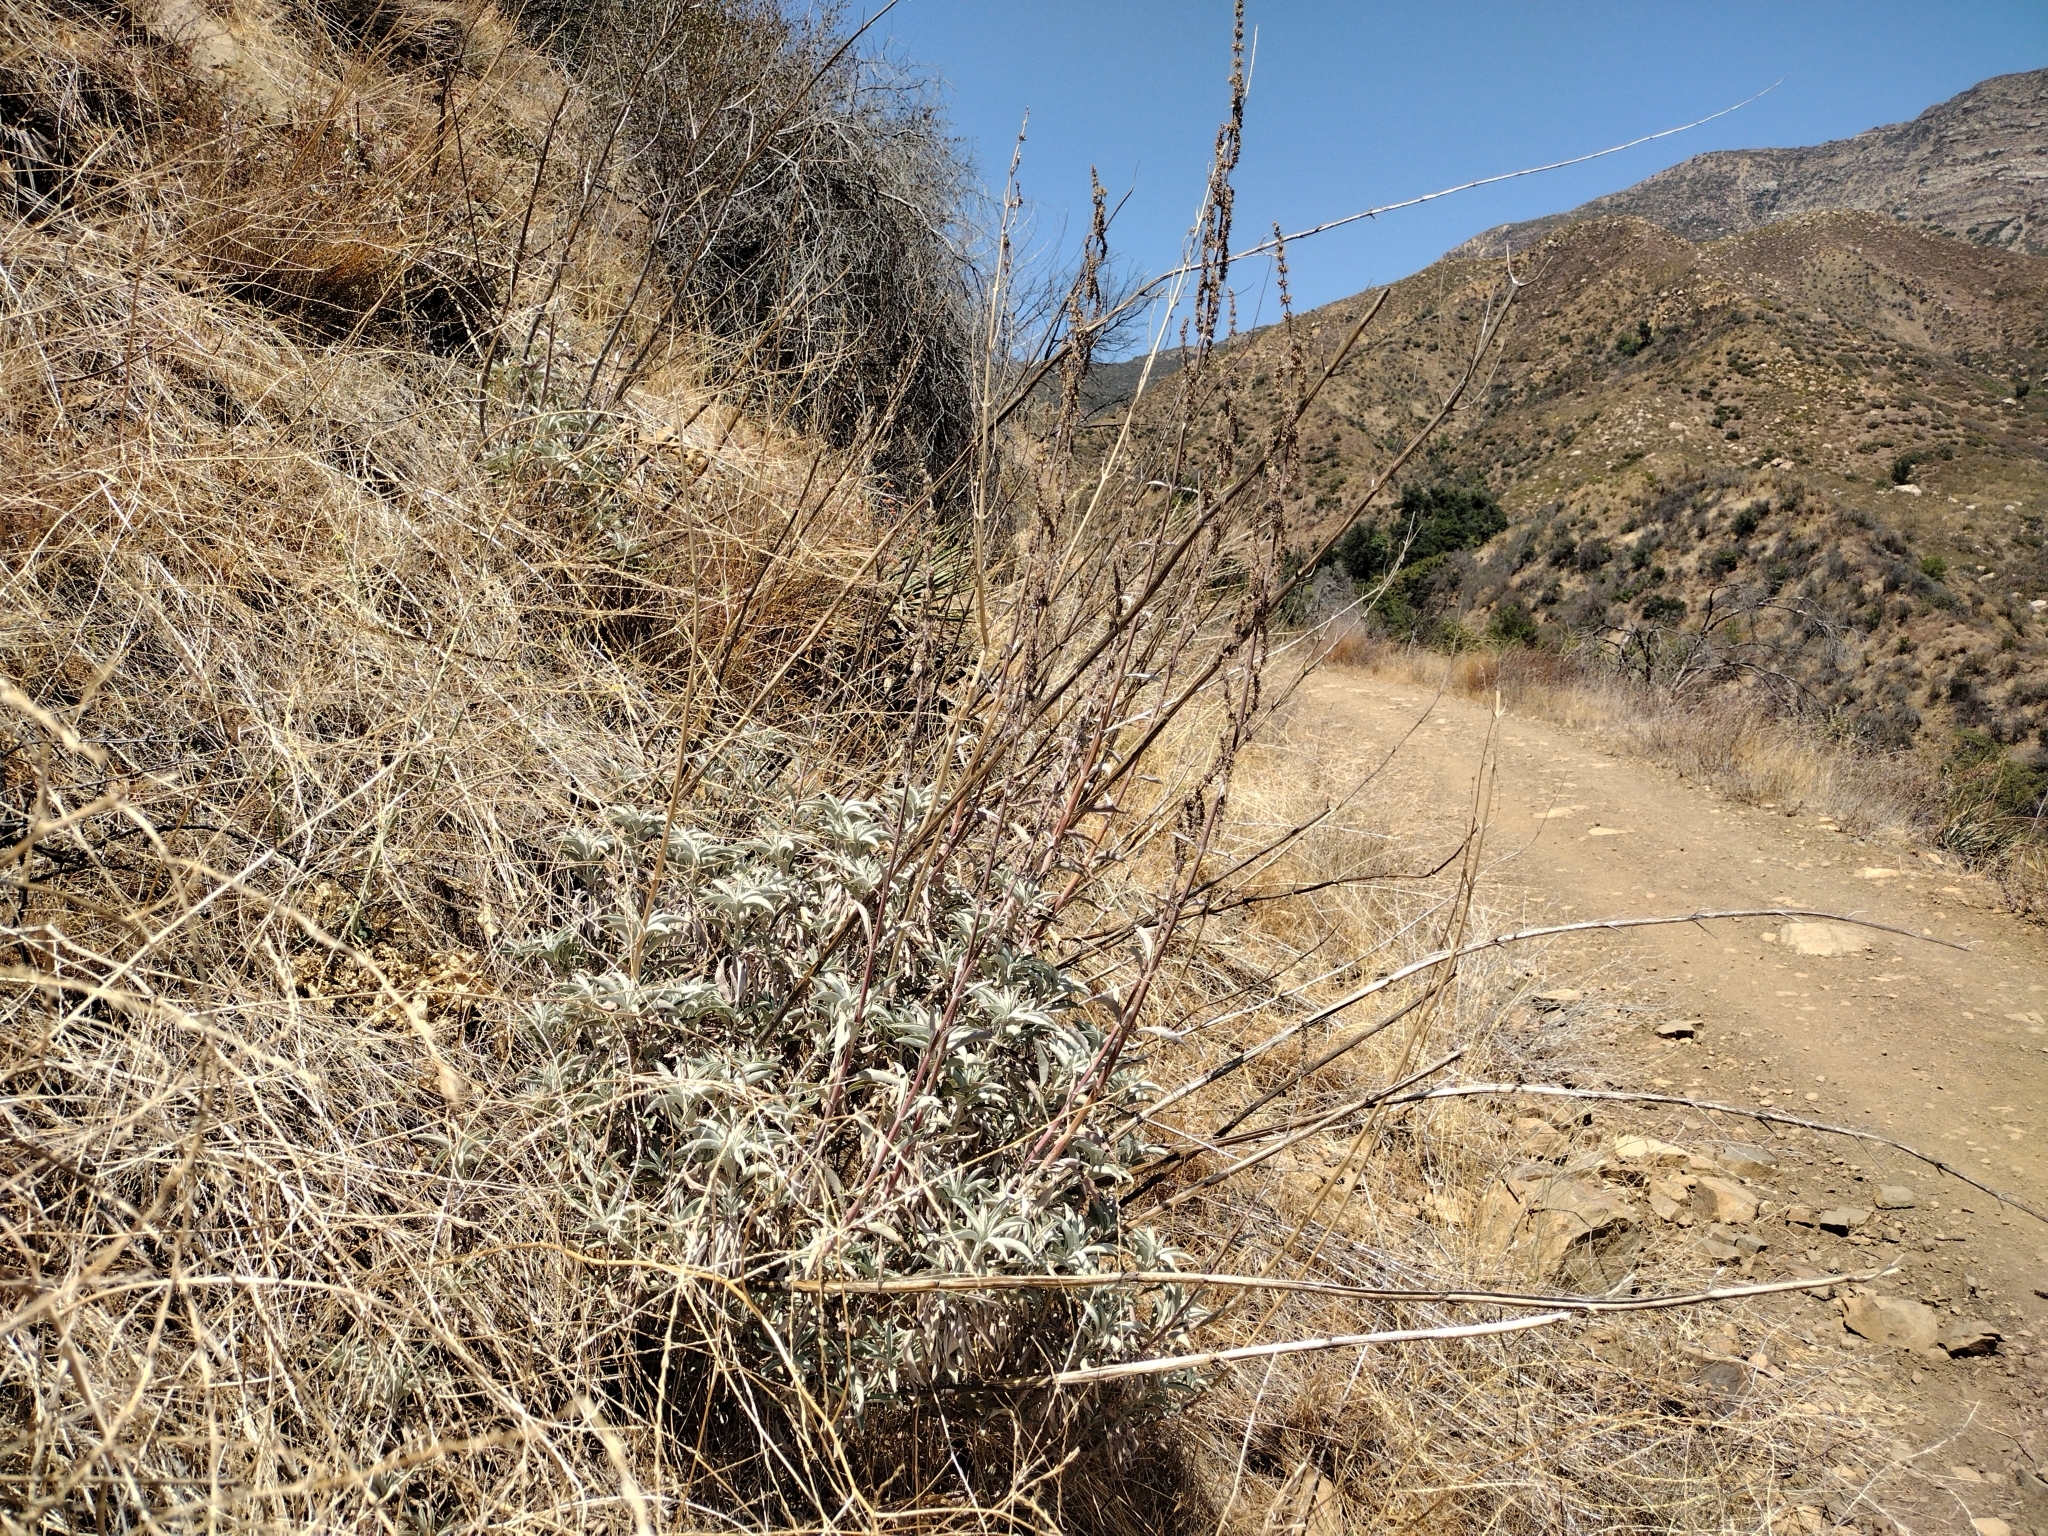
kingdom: Plantae
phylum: Tracheophyta
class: Magnoliopsida
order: Lamiales
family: Lamiaceae
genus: Salvia
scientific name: Salvia apiana
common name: White sage
